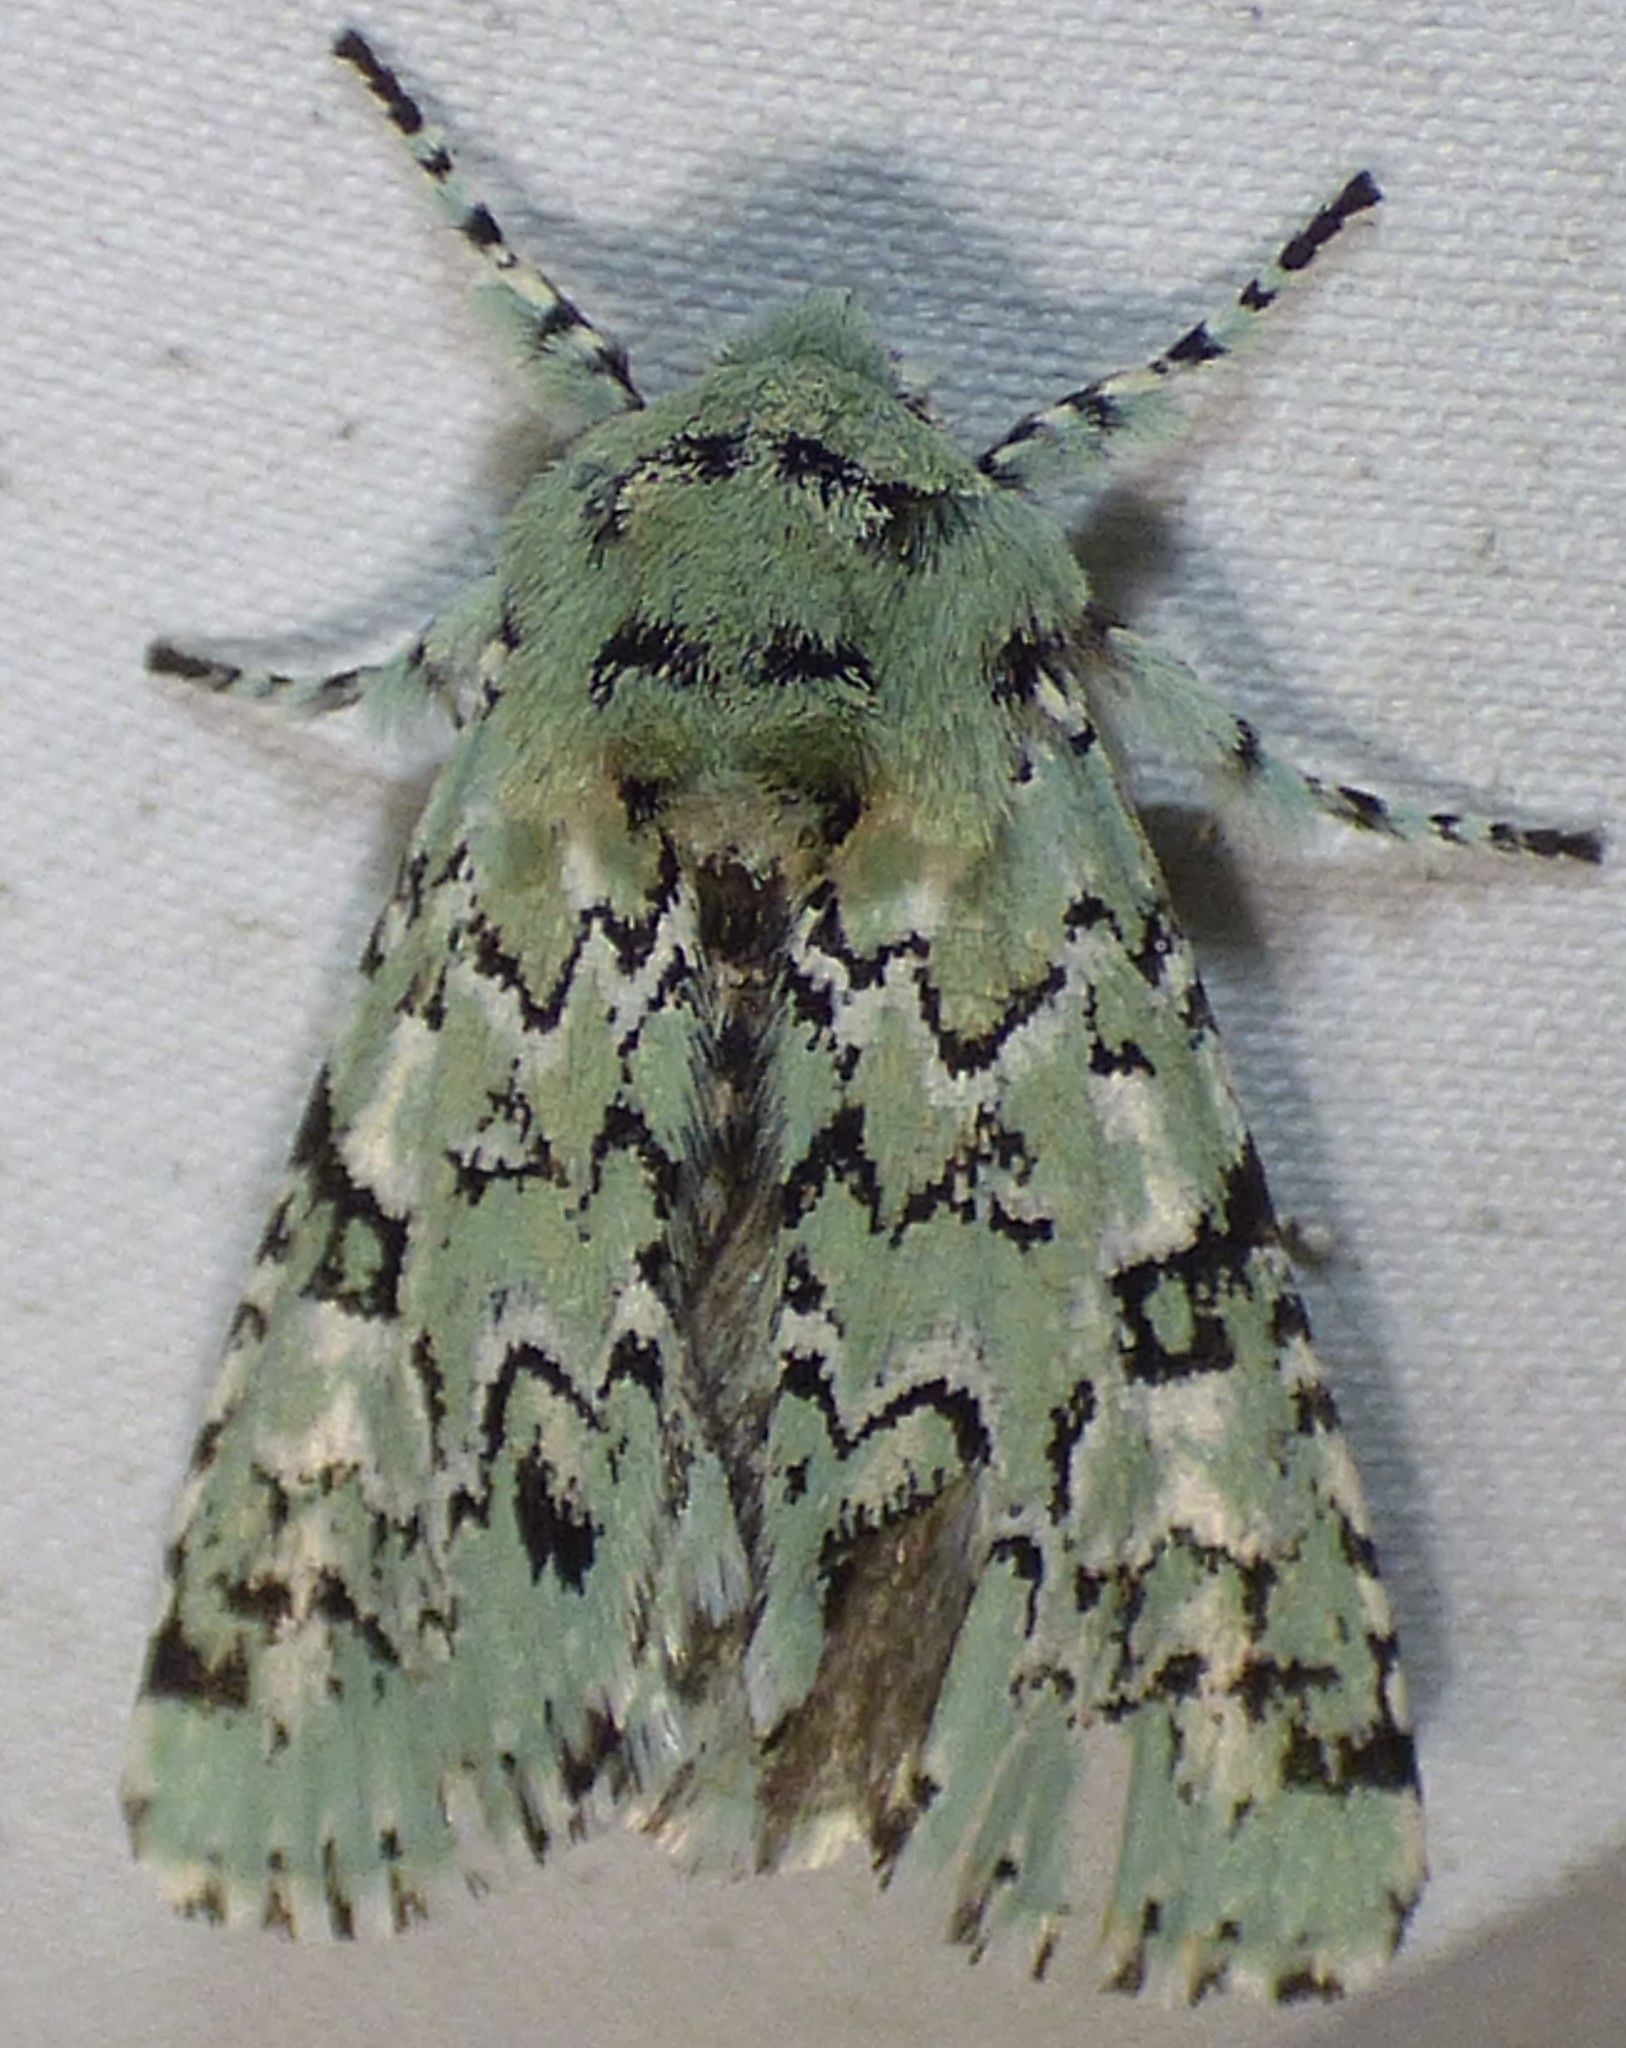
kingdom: Animalia
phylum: Arthropoda
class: Insecta
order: Lepidoptera
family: Noctuidae
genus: Feralia
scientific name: Feralia major
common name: Major sallow
